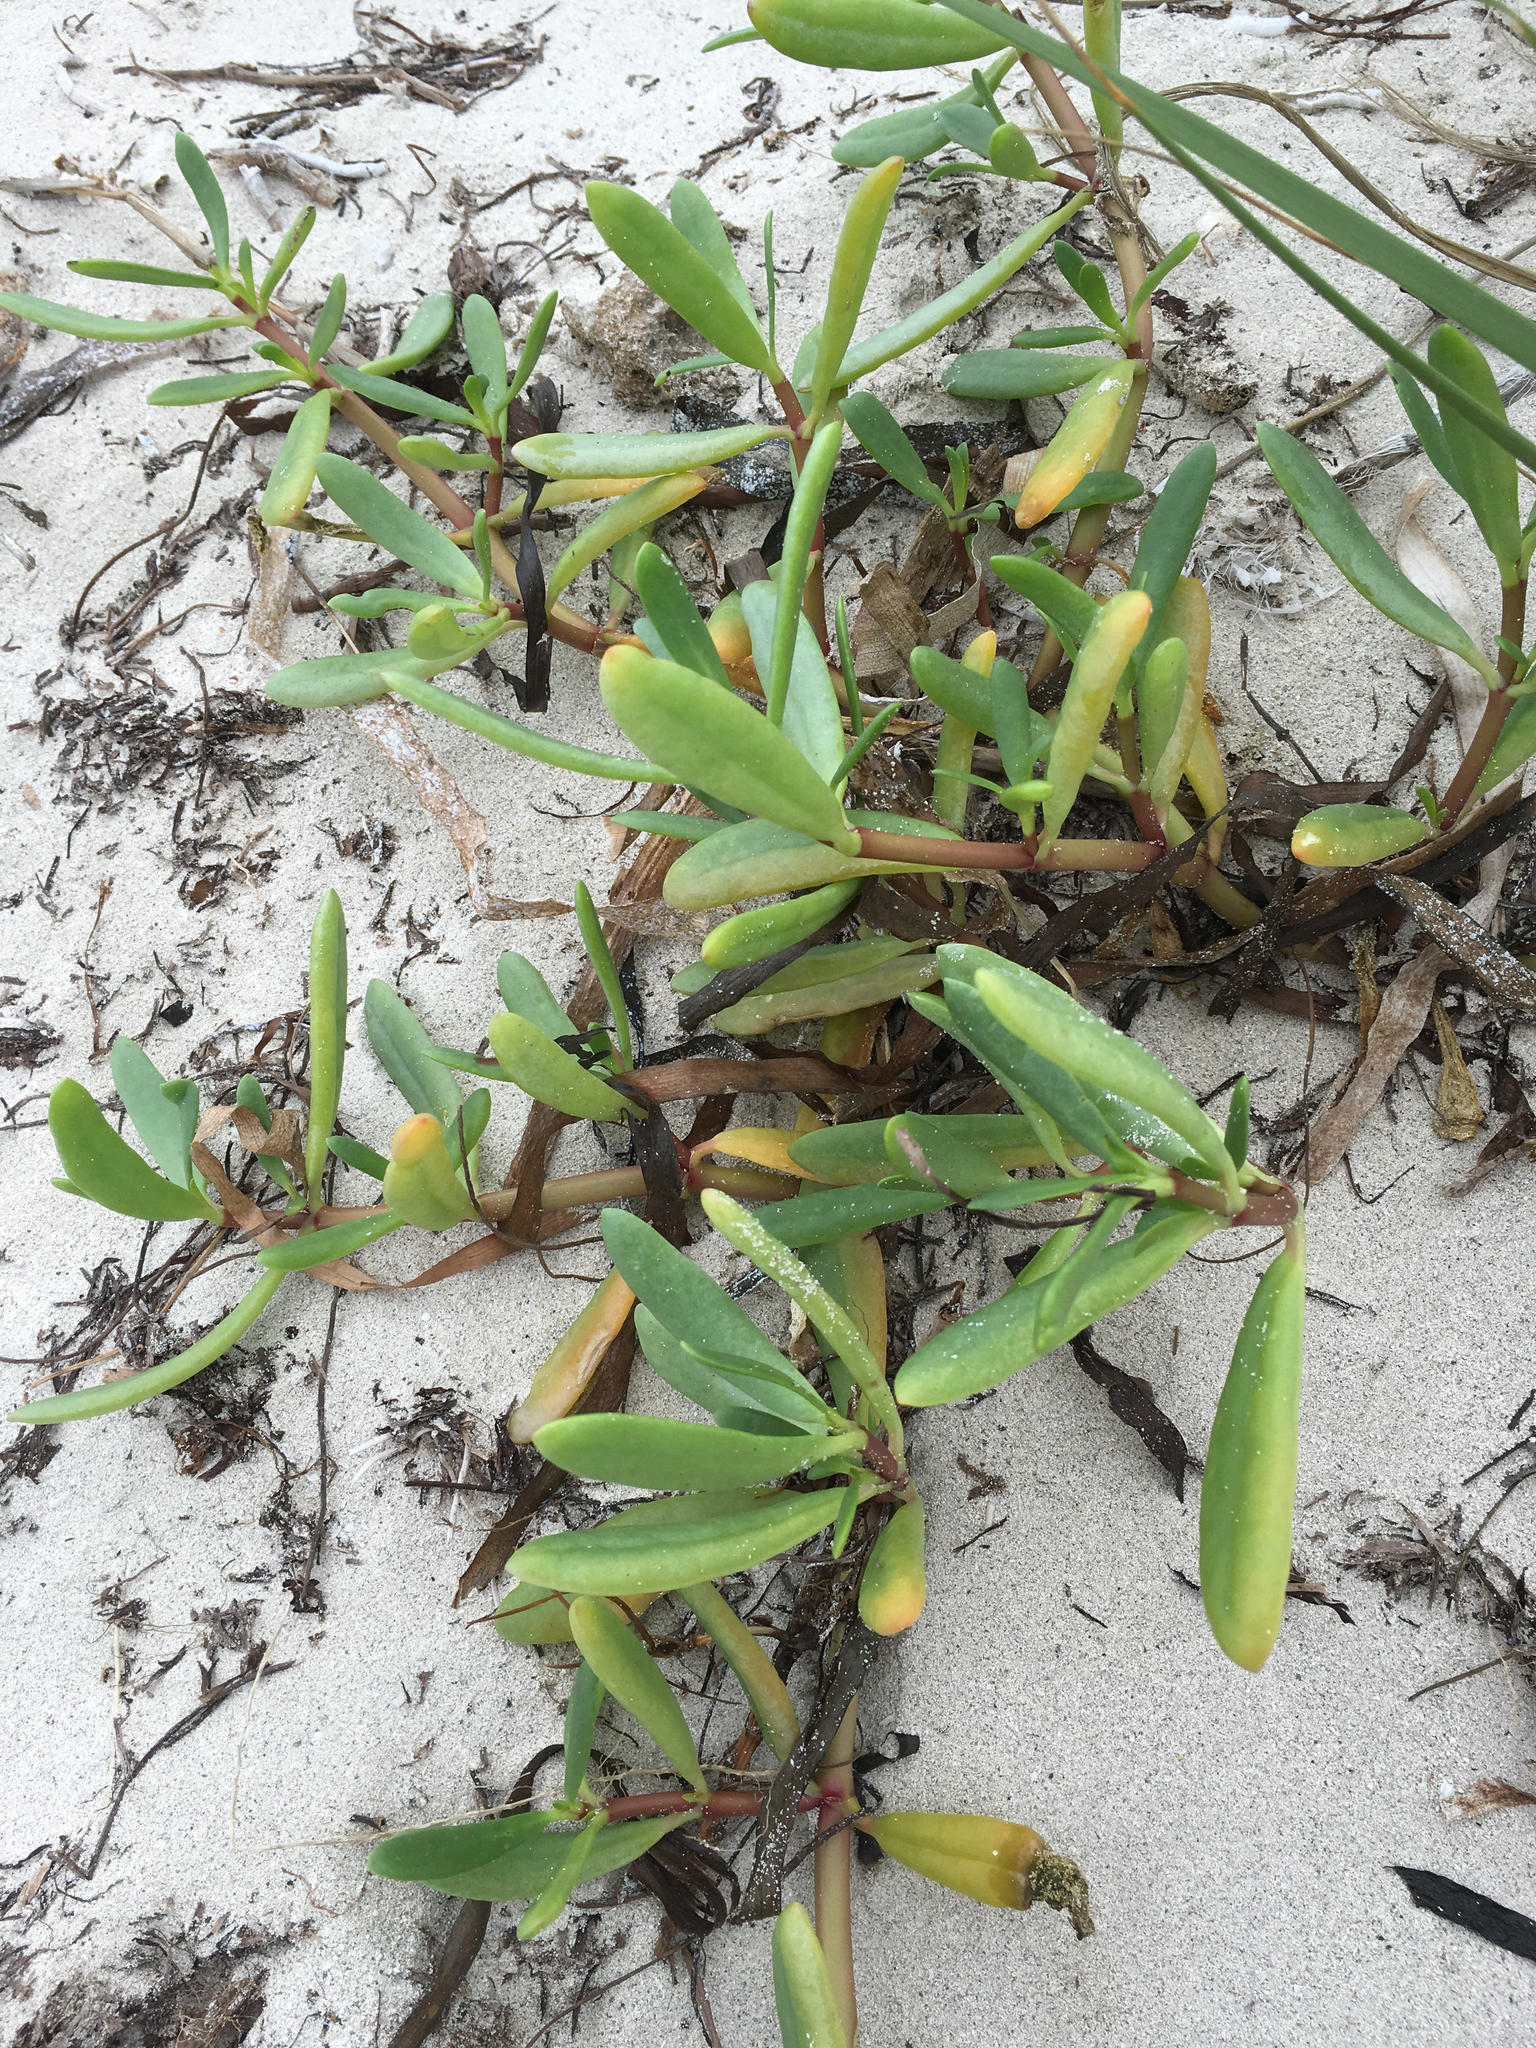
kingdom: Plantae
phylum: Tracheophyta
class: Magnoliopsida
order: Caryophyllales
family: Aizoaceae
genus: Sesuvium
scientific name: Sesuvium portulacastrum
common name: Sea-purslane
